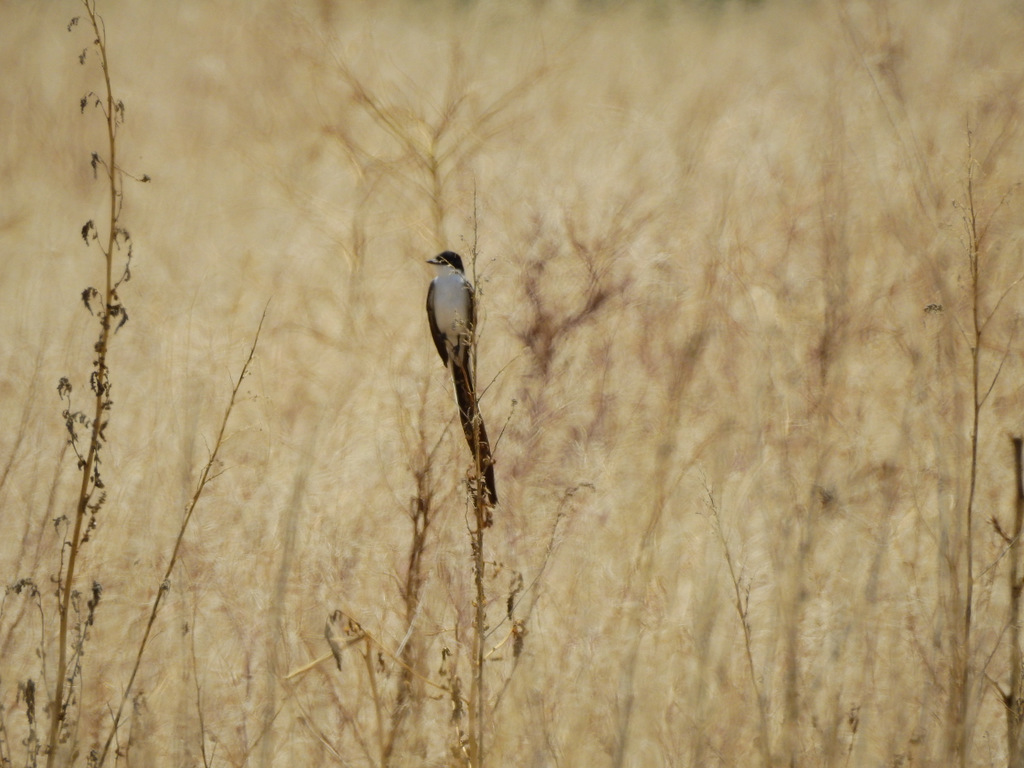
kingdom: Animalia
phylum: Chordata
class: Aves
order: Passeriformes
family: Tyrannidae
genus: Tyrannus
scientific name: Tyrannus savana
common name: Fork-tailed flycatcher
